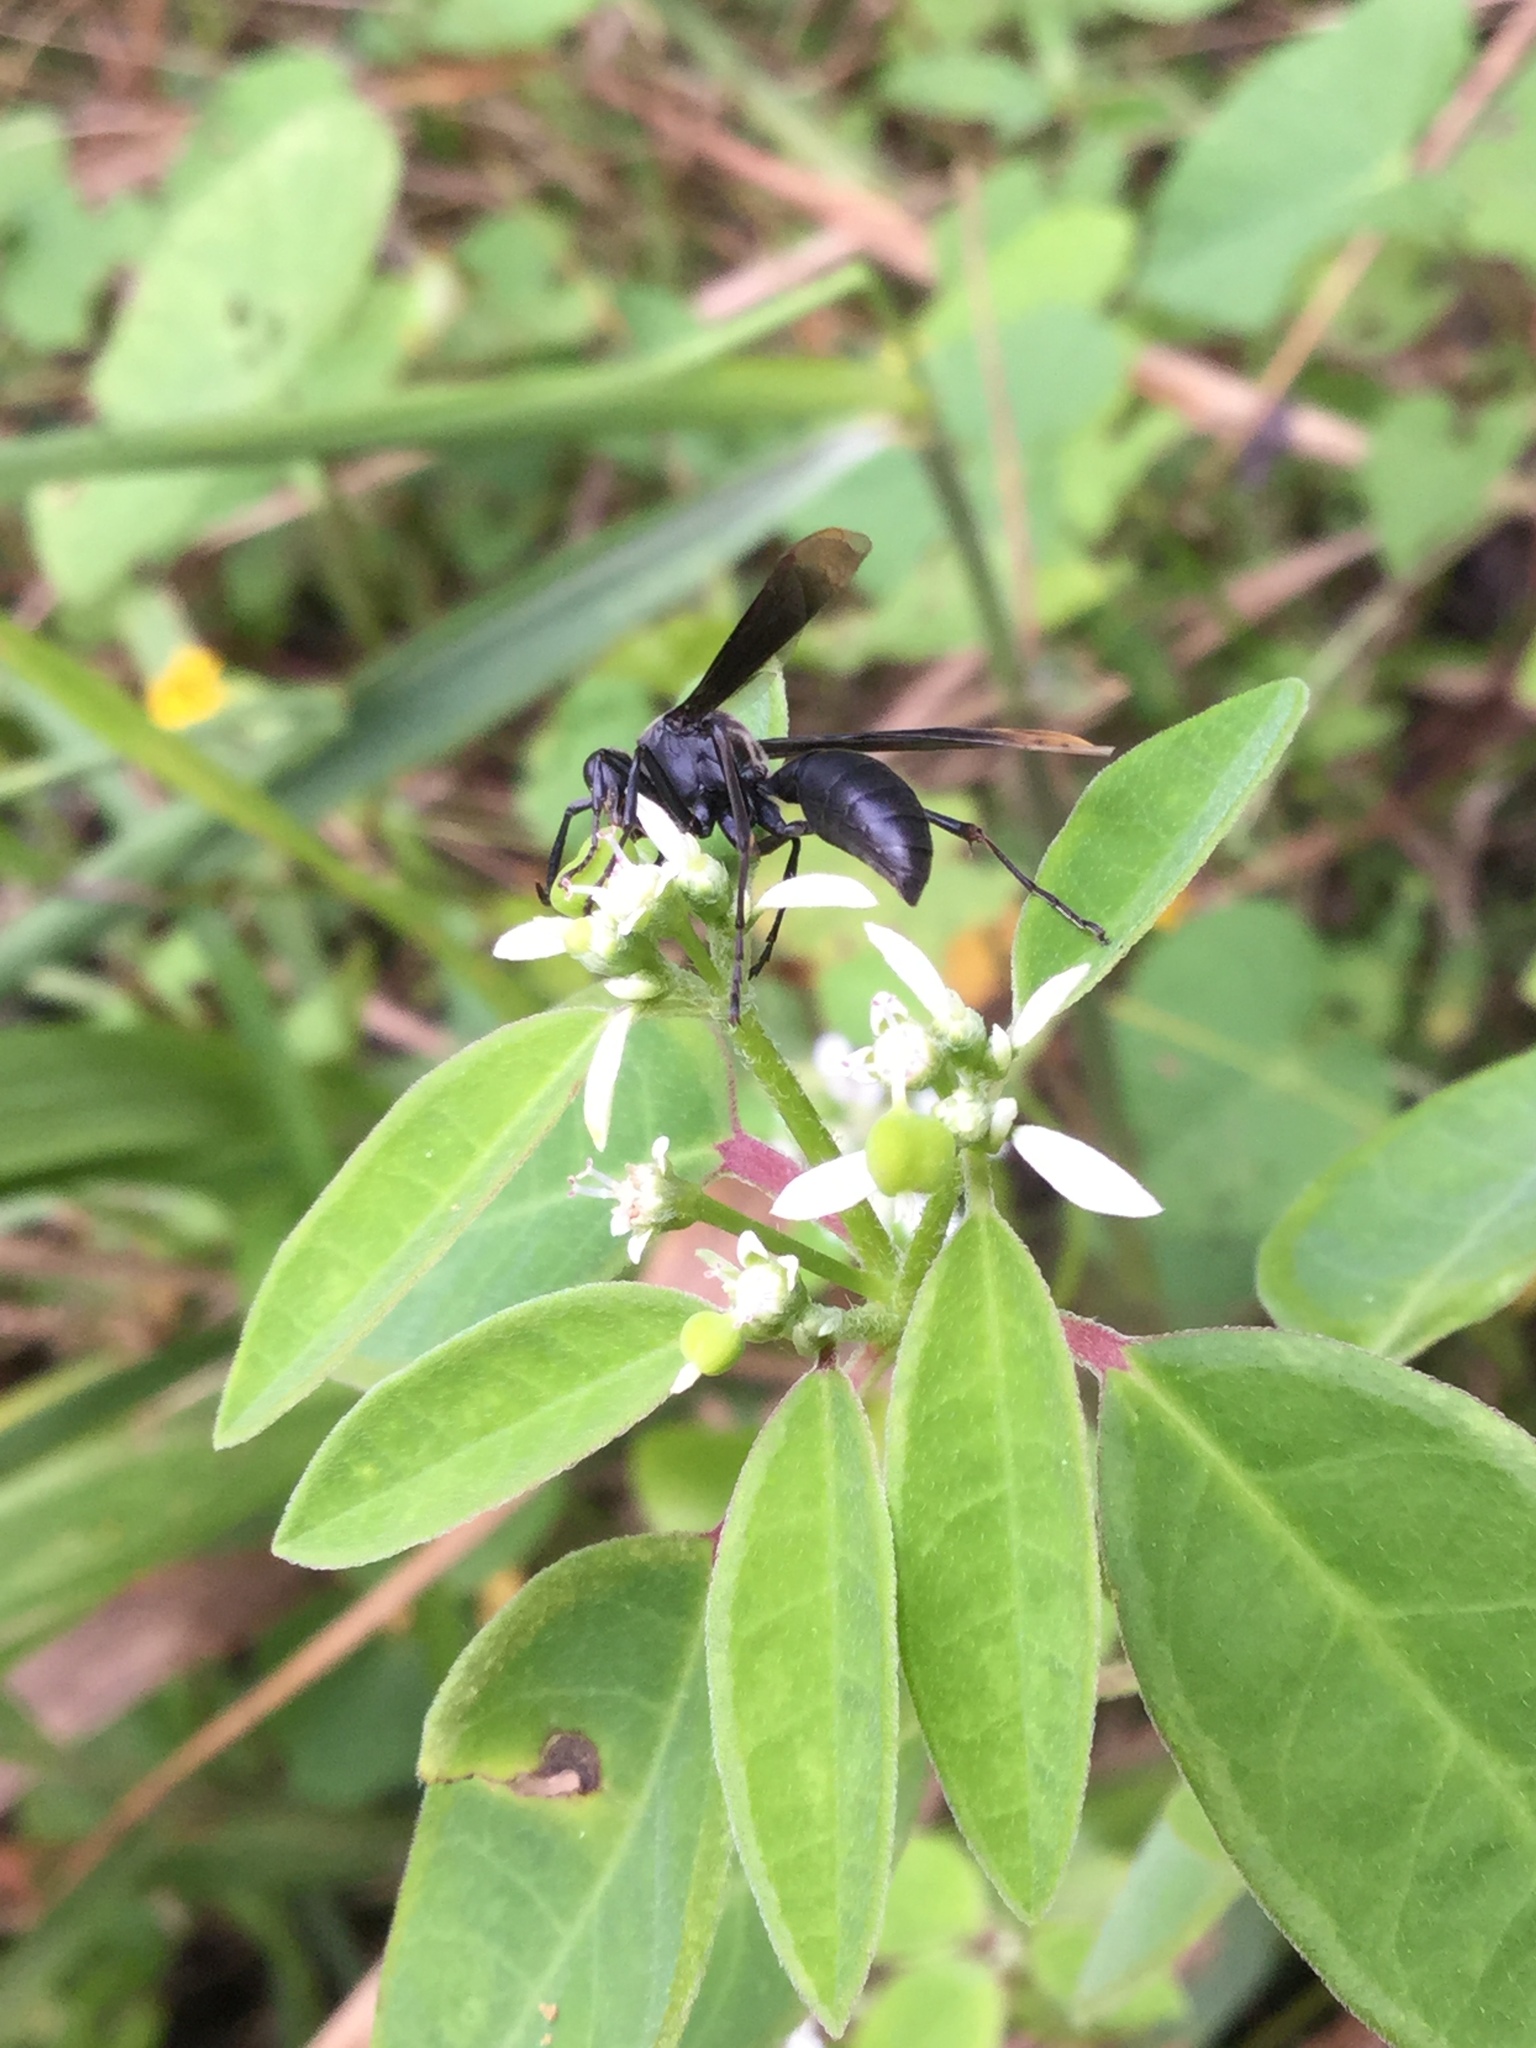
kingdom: Animalia
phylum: Arthropoda
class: Insecta
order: Hymenoptera
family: Vespidae
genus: Parachartergus
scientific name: Parachartergus apicalis
